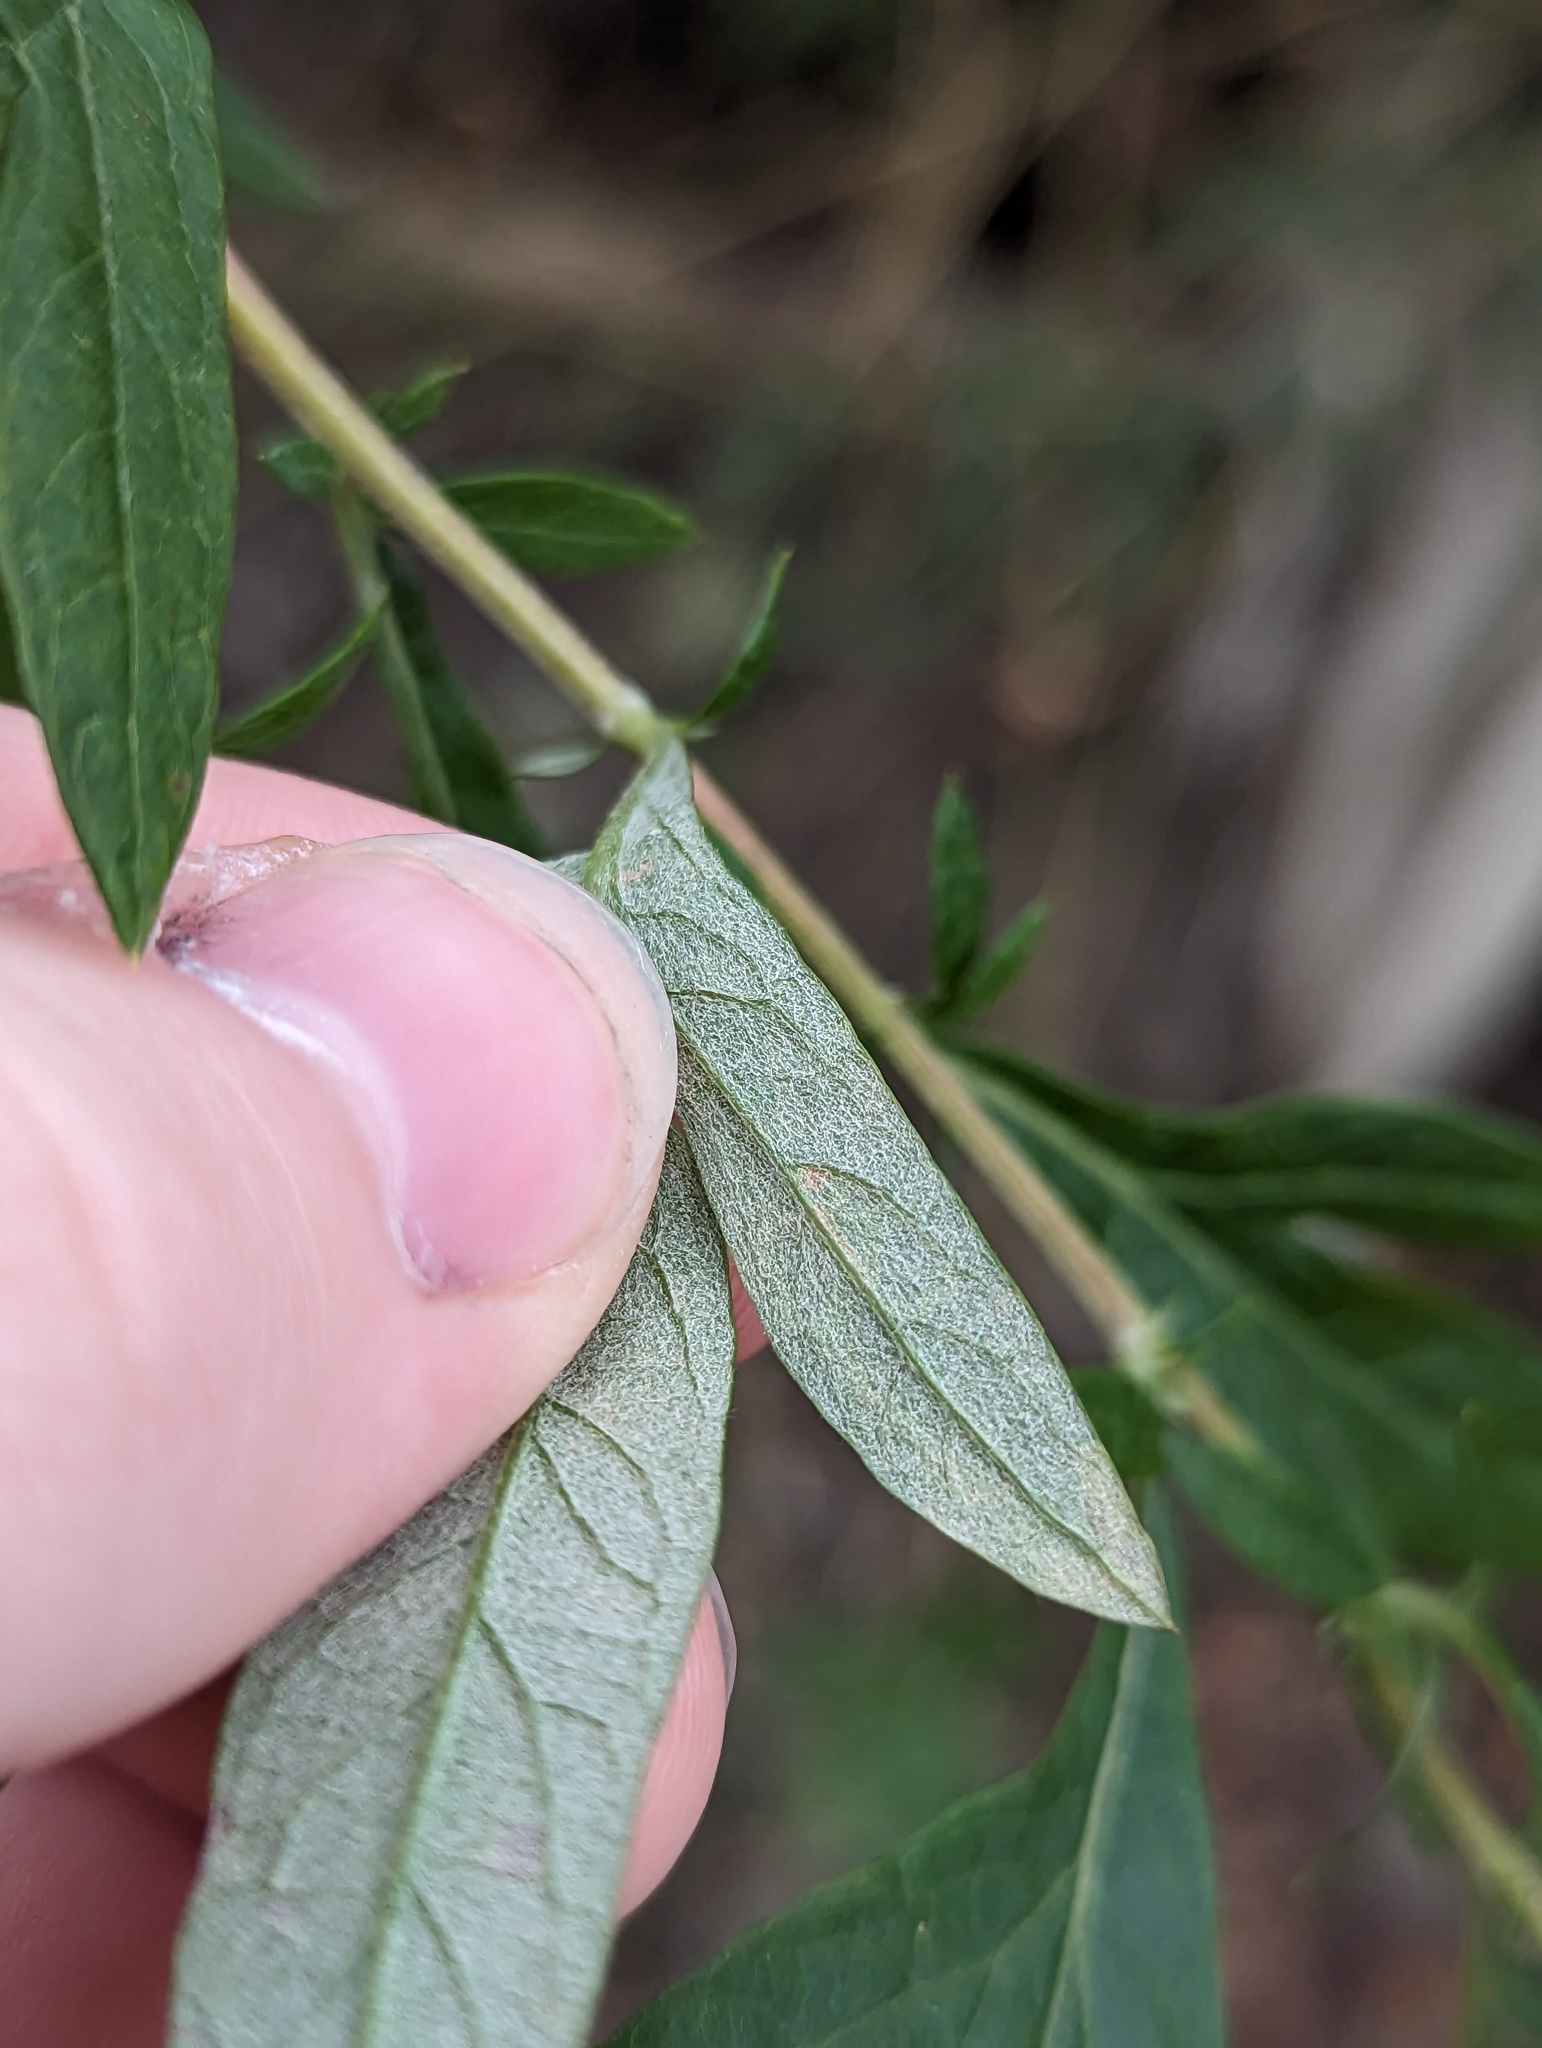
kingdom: Animalia
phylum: Arthropoda
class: Insecta
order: Diptera
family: Agromyzidae
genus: Liriomyza
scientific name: Liriomyza ptarmicae
